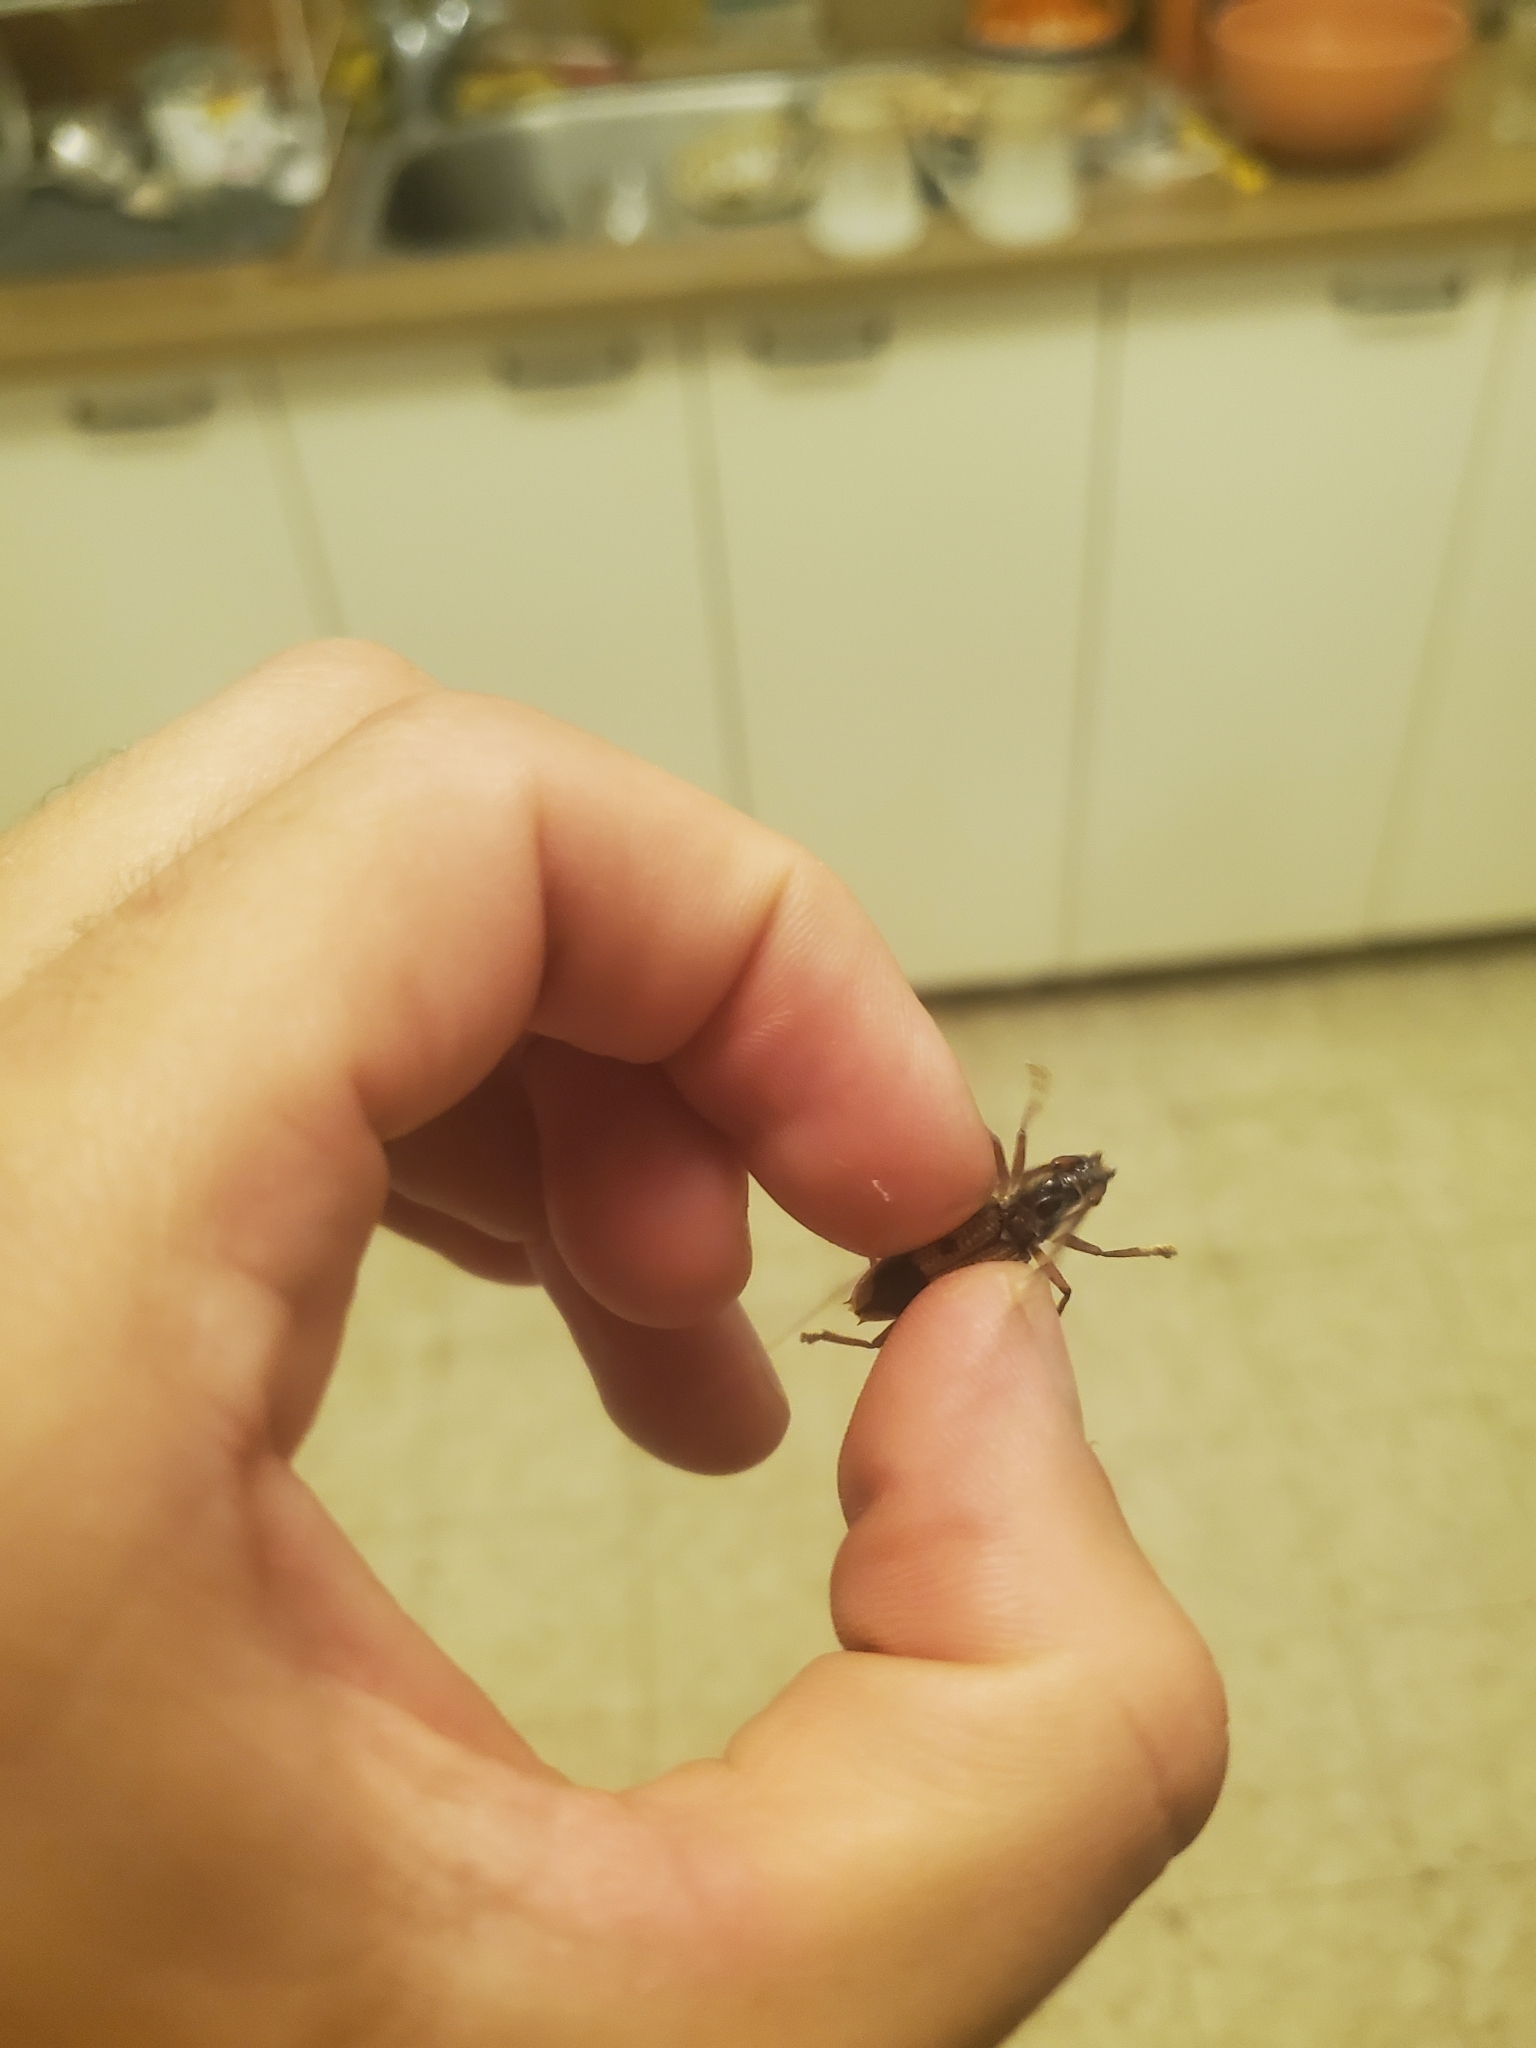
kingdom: Animalia
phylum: Arthropoda
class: Insecta
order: Coleoptera
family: Cerambycidae
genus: Phoracantha
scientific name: Phoracantha recurva
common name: Eucalyptus longhorned borer
